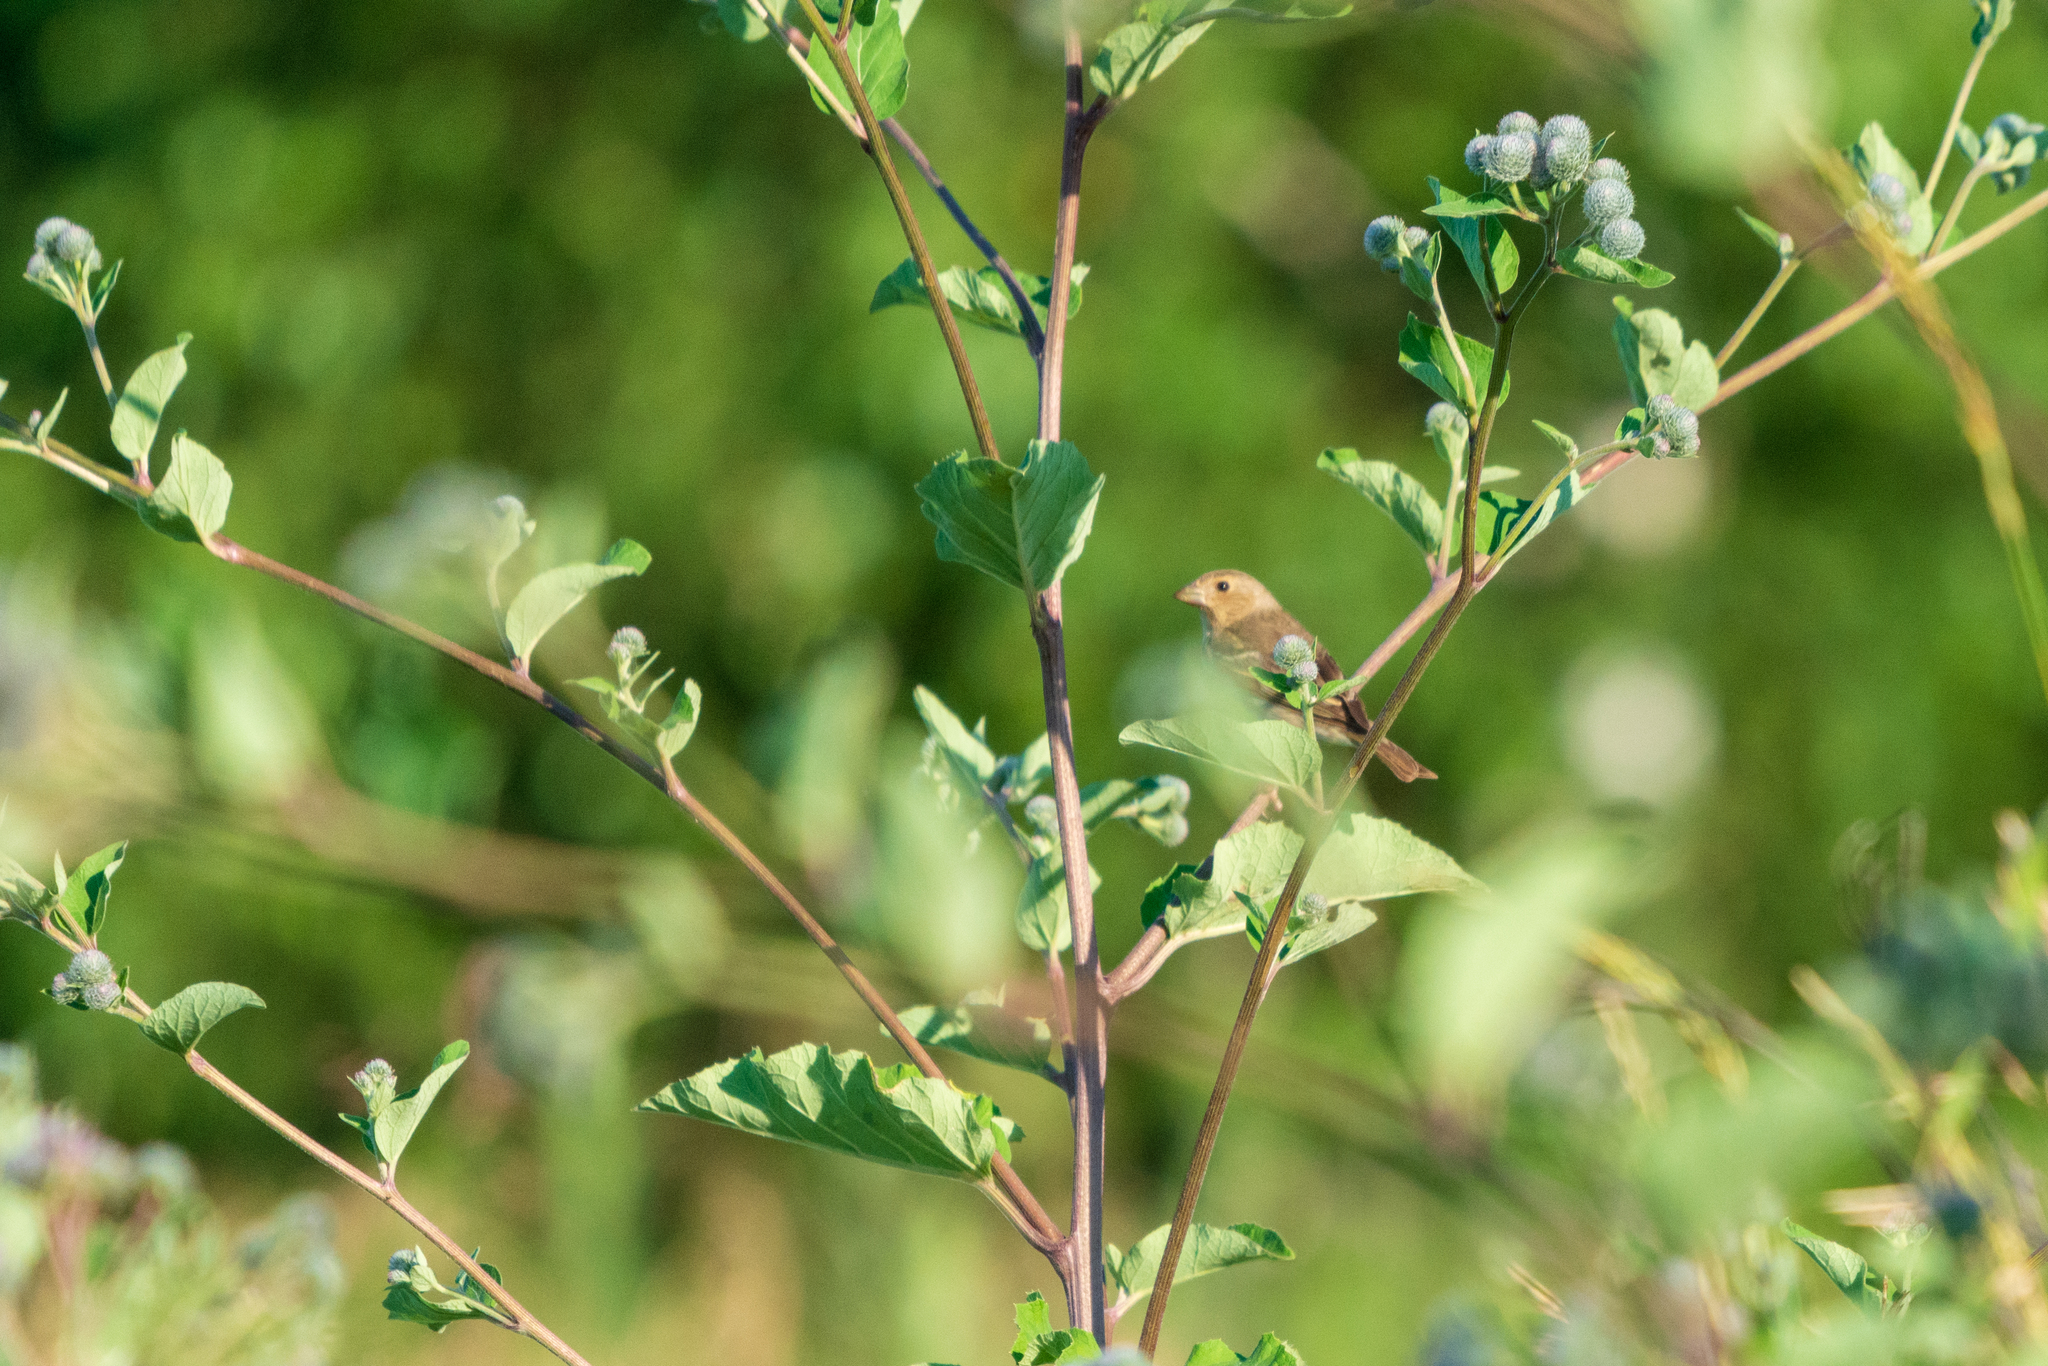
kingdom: Animalia
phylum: Chordata
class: Aves
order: Passeriformes
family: Fringillidae
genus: Carpodacus
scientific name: Carpodacus erythrinus
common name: Common rosefinch
